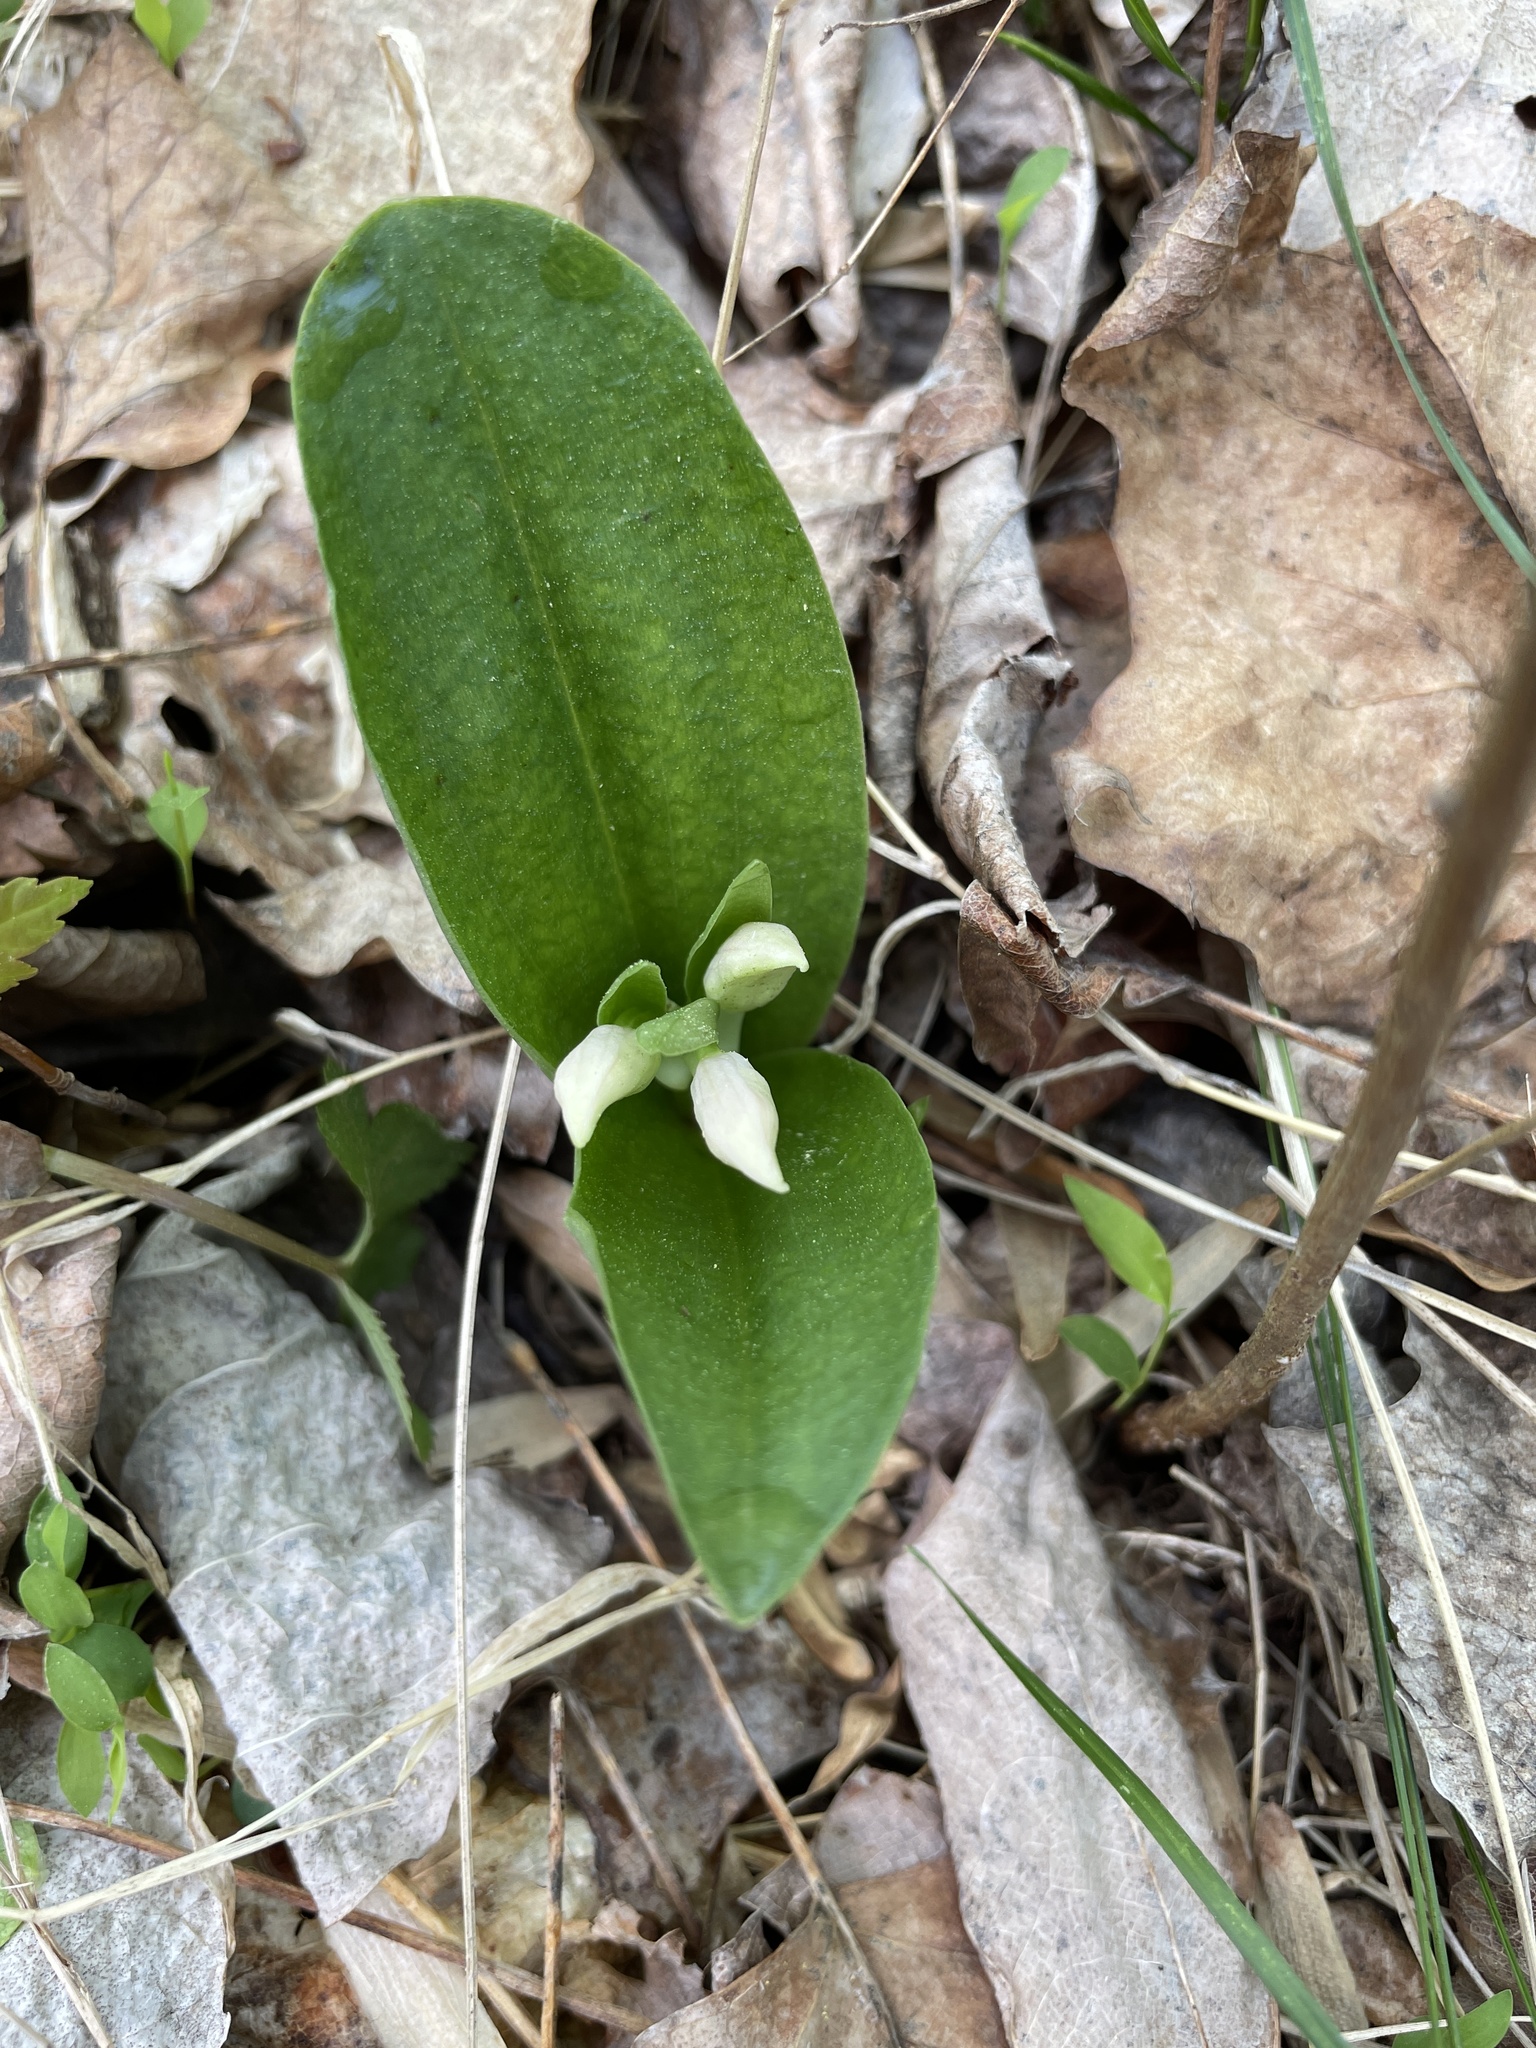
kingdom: Plantae
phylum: Tracheophyta
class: Liliopsida
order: Asparagales
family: Orchidaceae
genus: Galearis
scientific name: Galearis spectabilis
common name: Purple-hooded orchis
